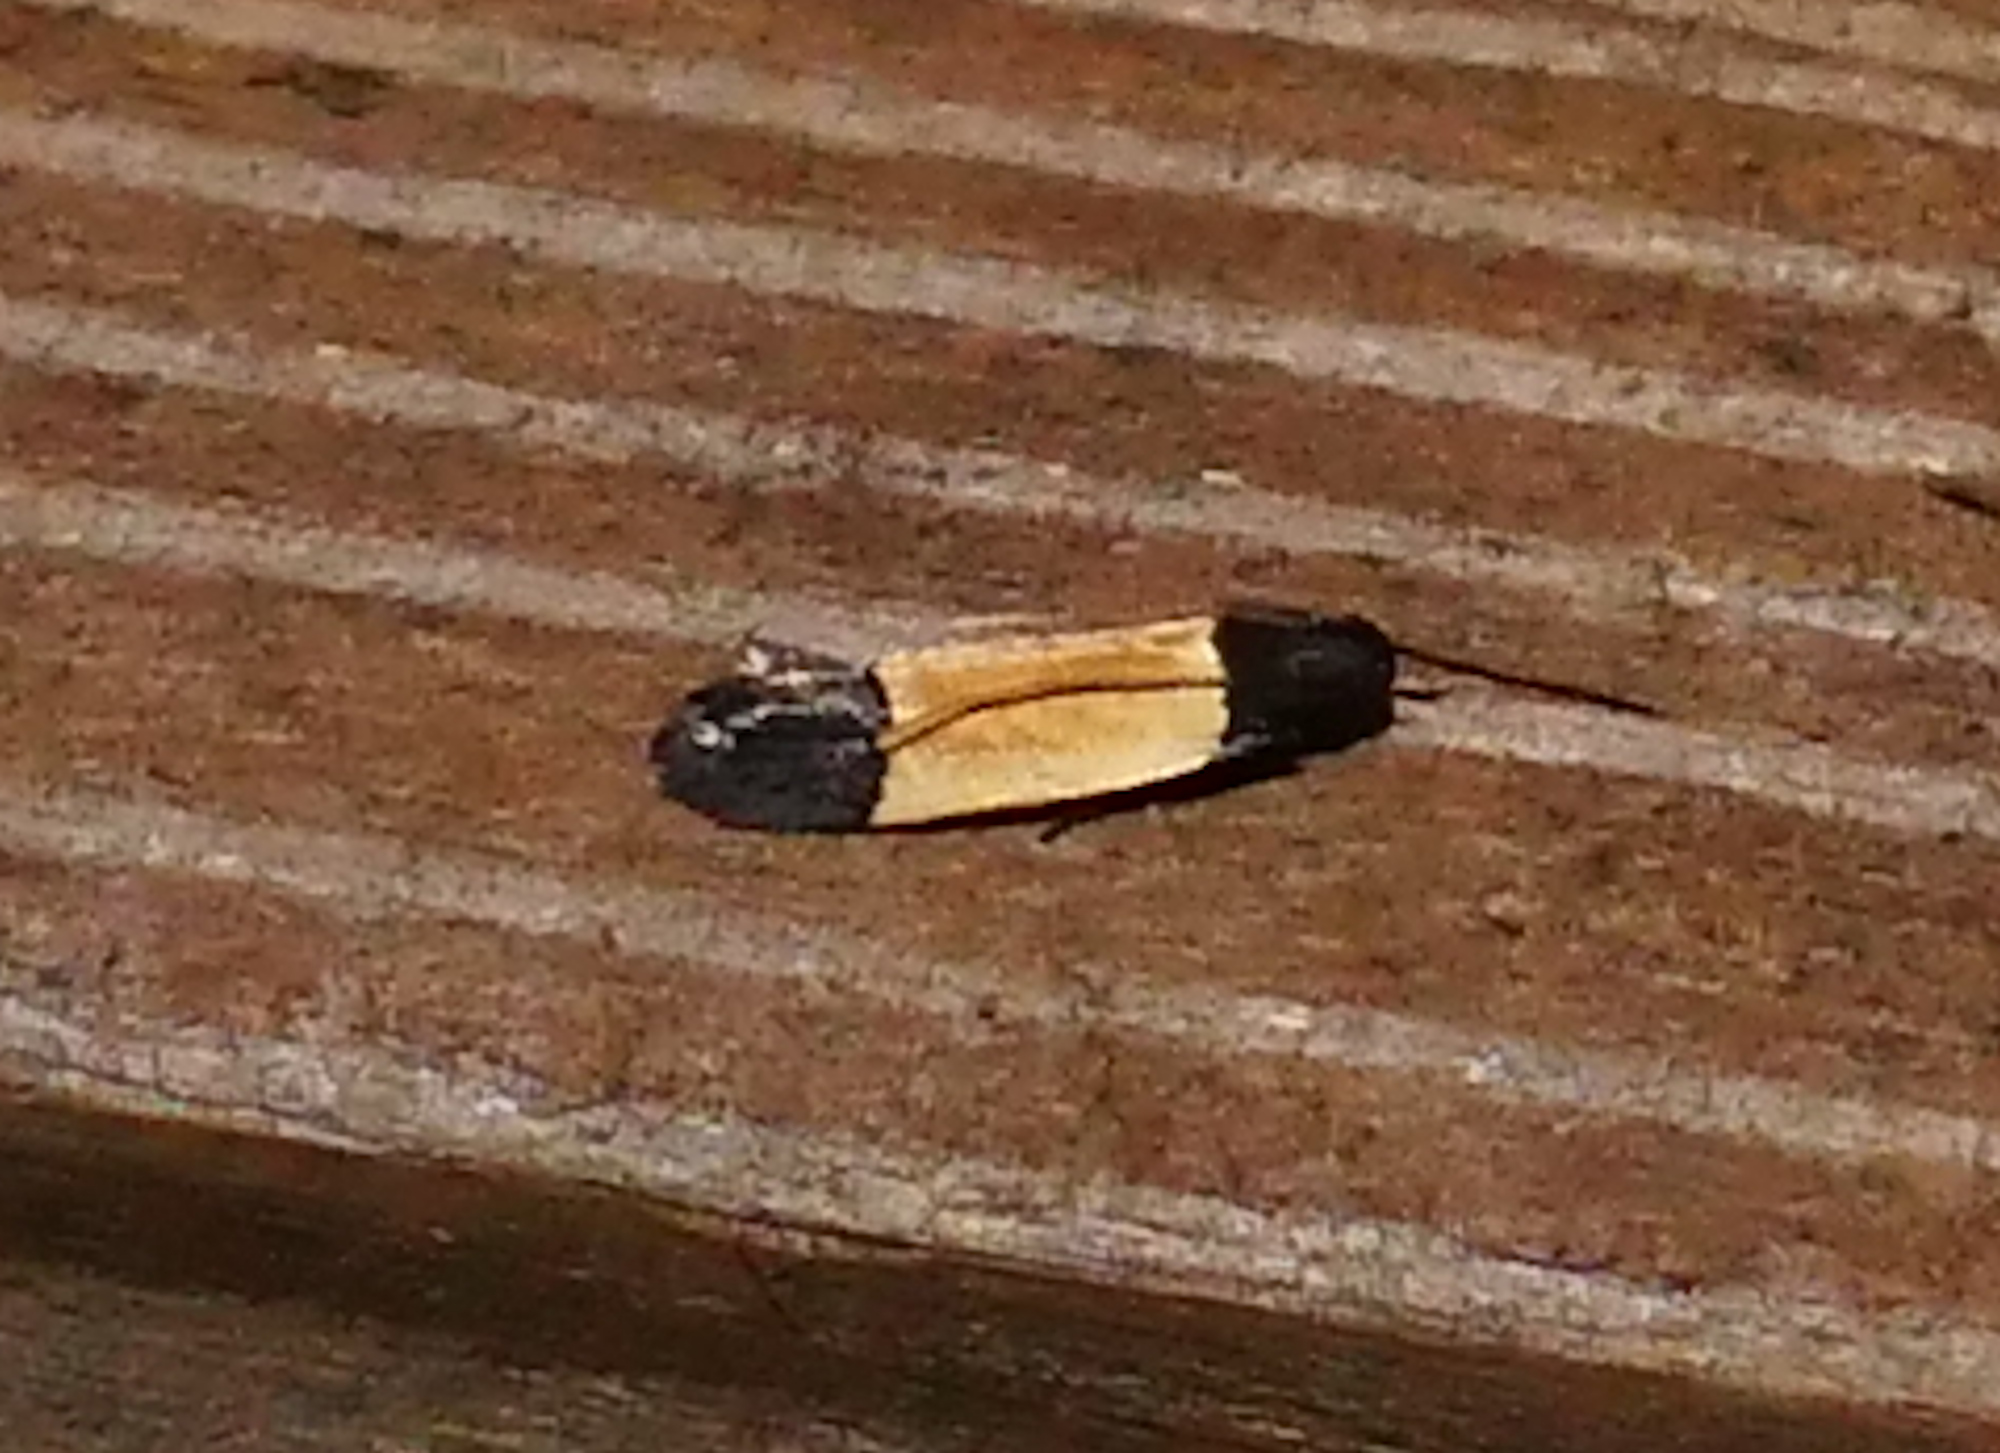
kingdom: Animalia
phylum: Arthropoda
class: Insecta
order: Lepidoptera
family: Gelechiidae
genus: Anacampsis
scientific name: Anacampsis coverdalella
